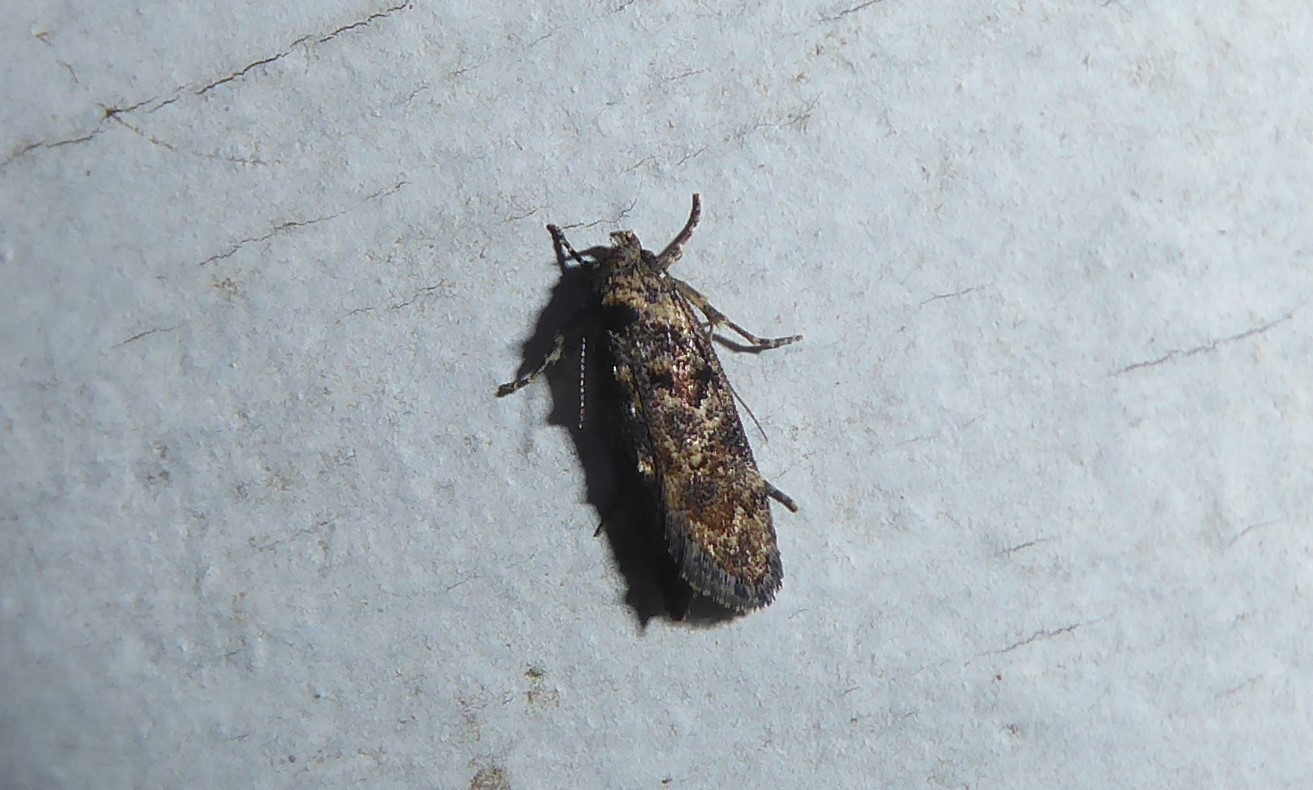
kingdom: Animalia
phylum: Arthropoda
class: Insecta
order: Lepidoptera
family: Oecophoridae
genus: Trachypepla
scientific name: Trachypepla anastrella
